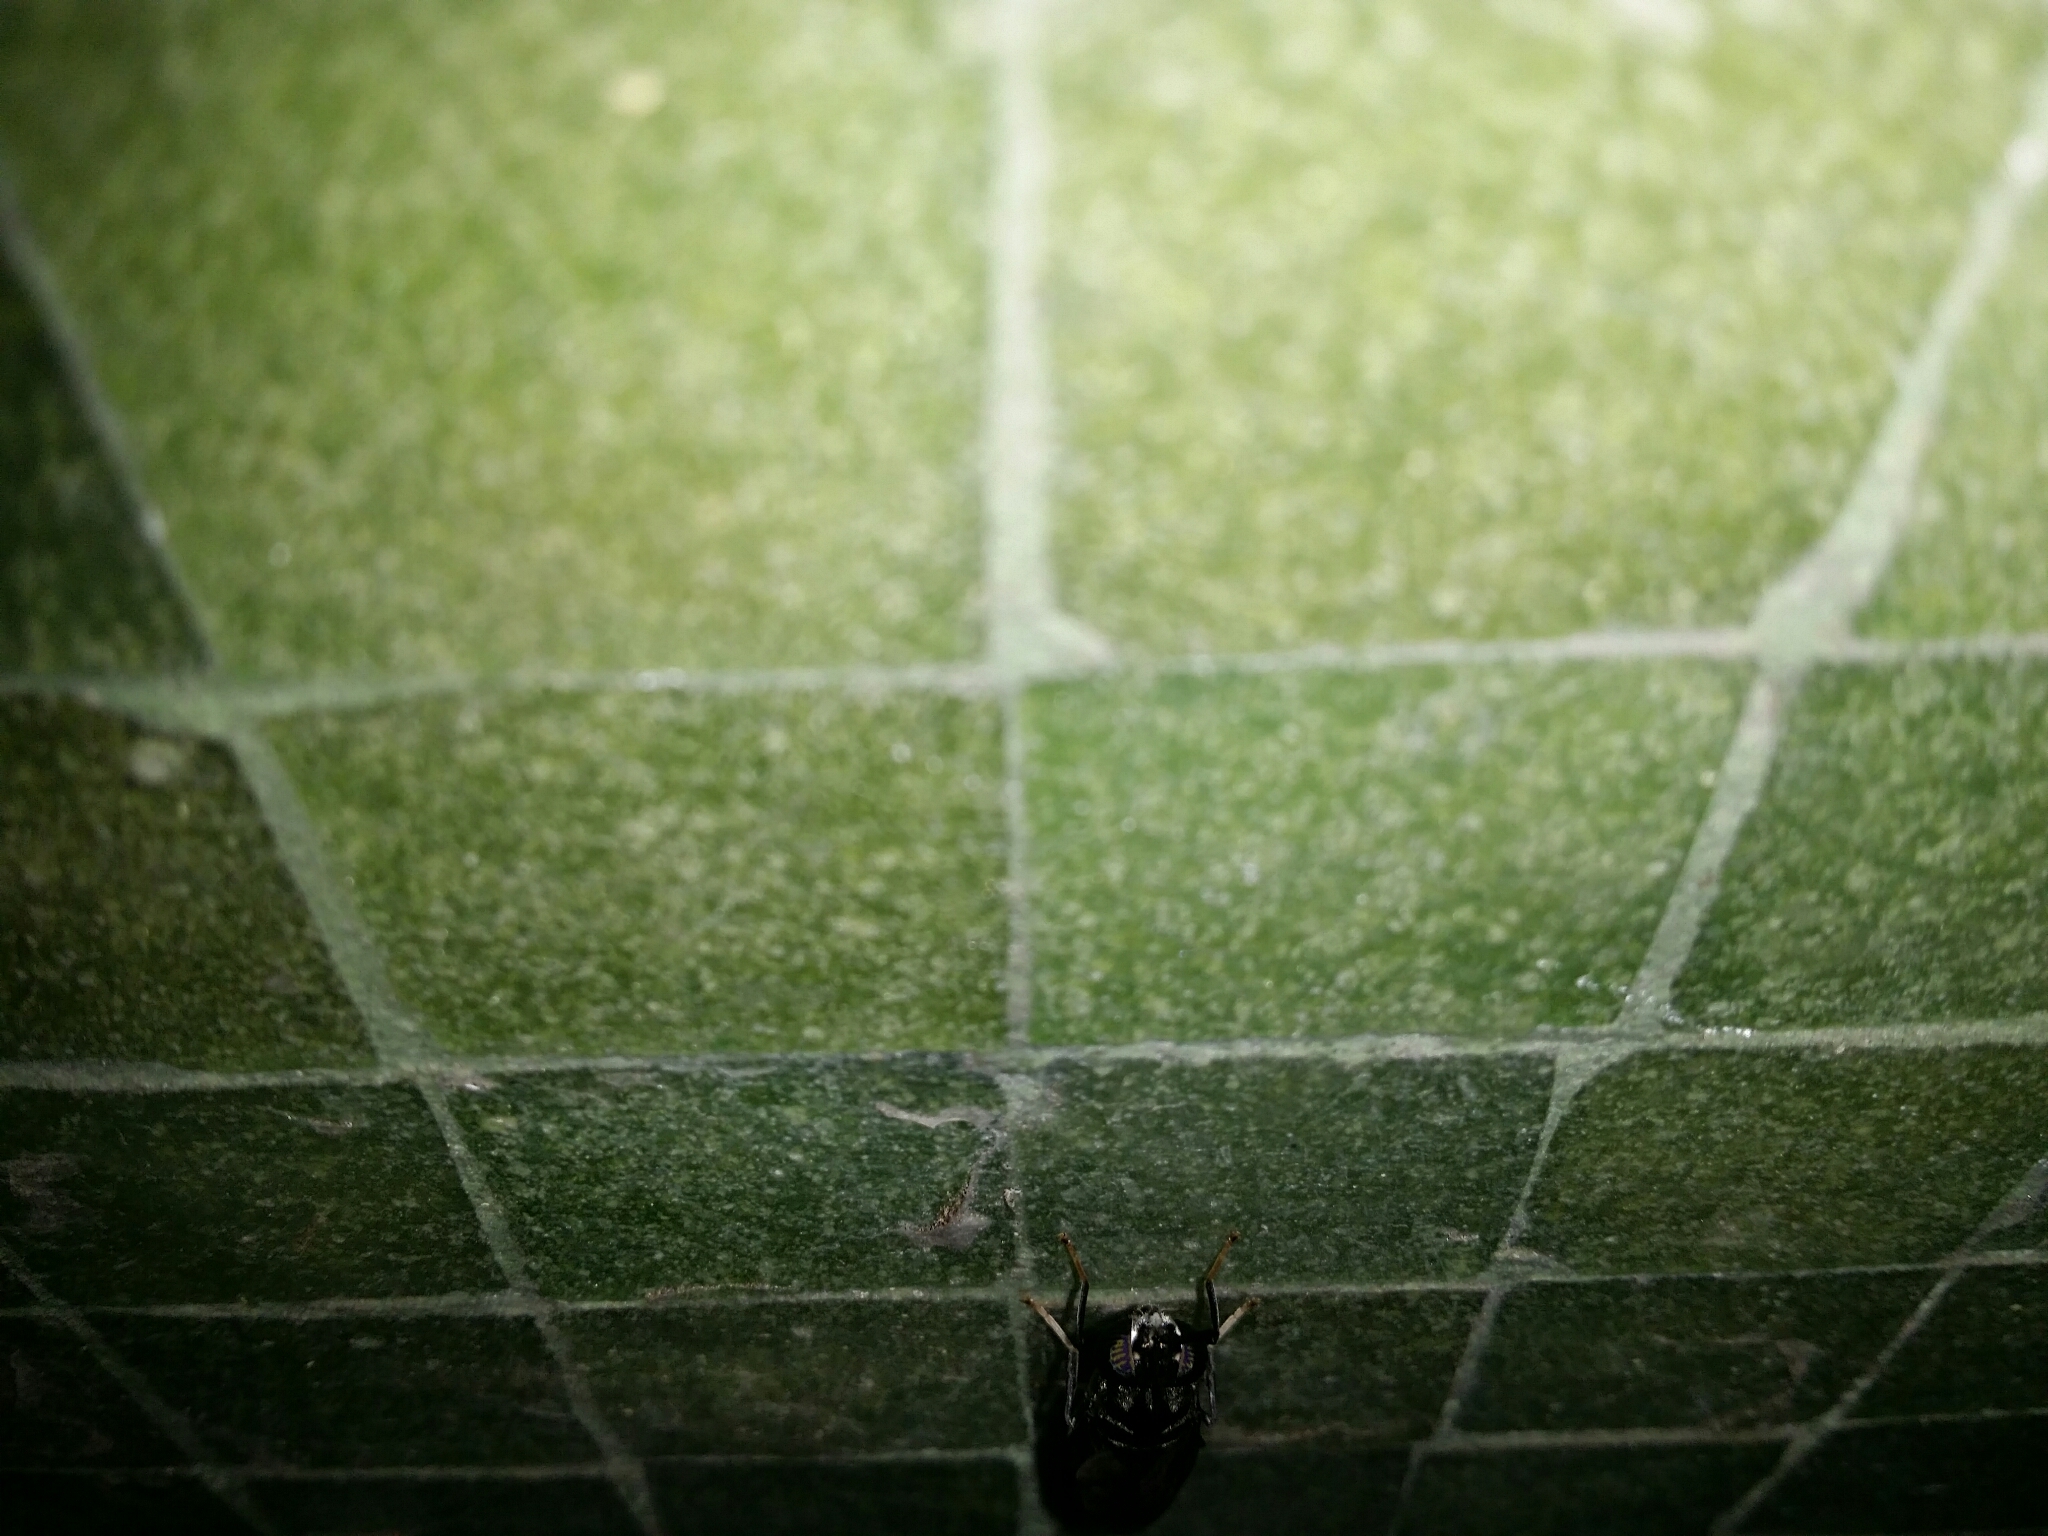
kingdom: Animalia
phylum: Arthropoda
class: Insecta
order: Diptera
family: Stratiomyidae
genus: Hermetia
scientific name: Hermetia illucens
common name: Black soldier fly
